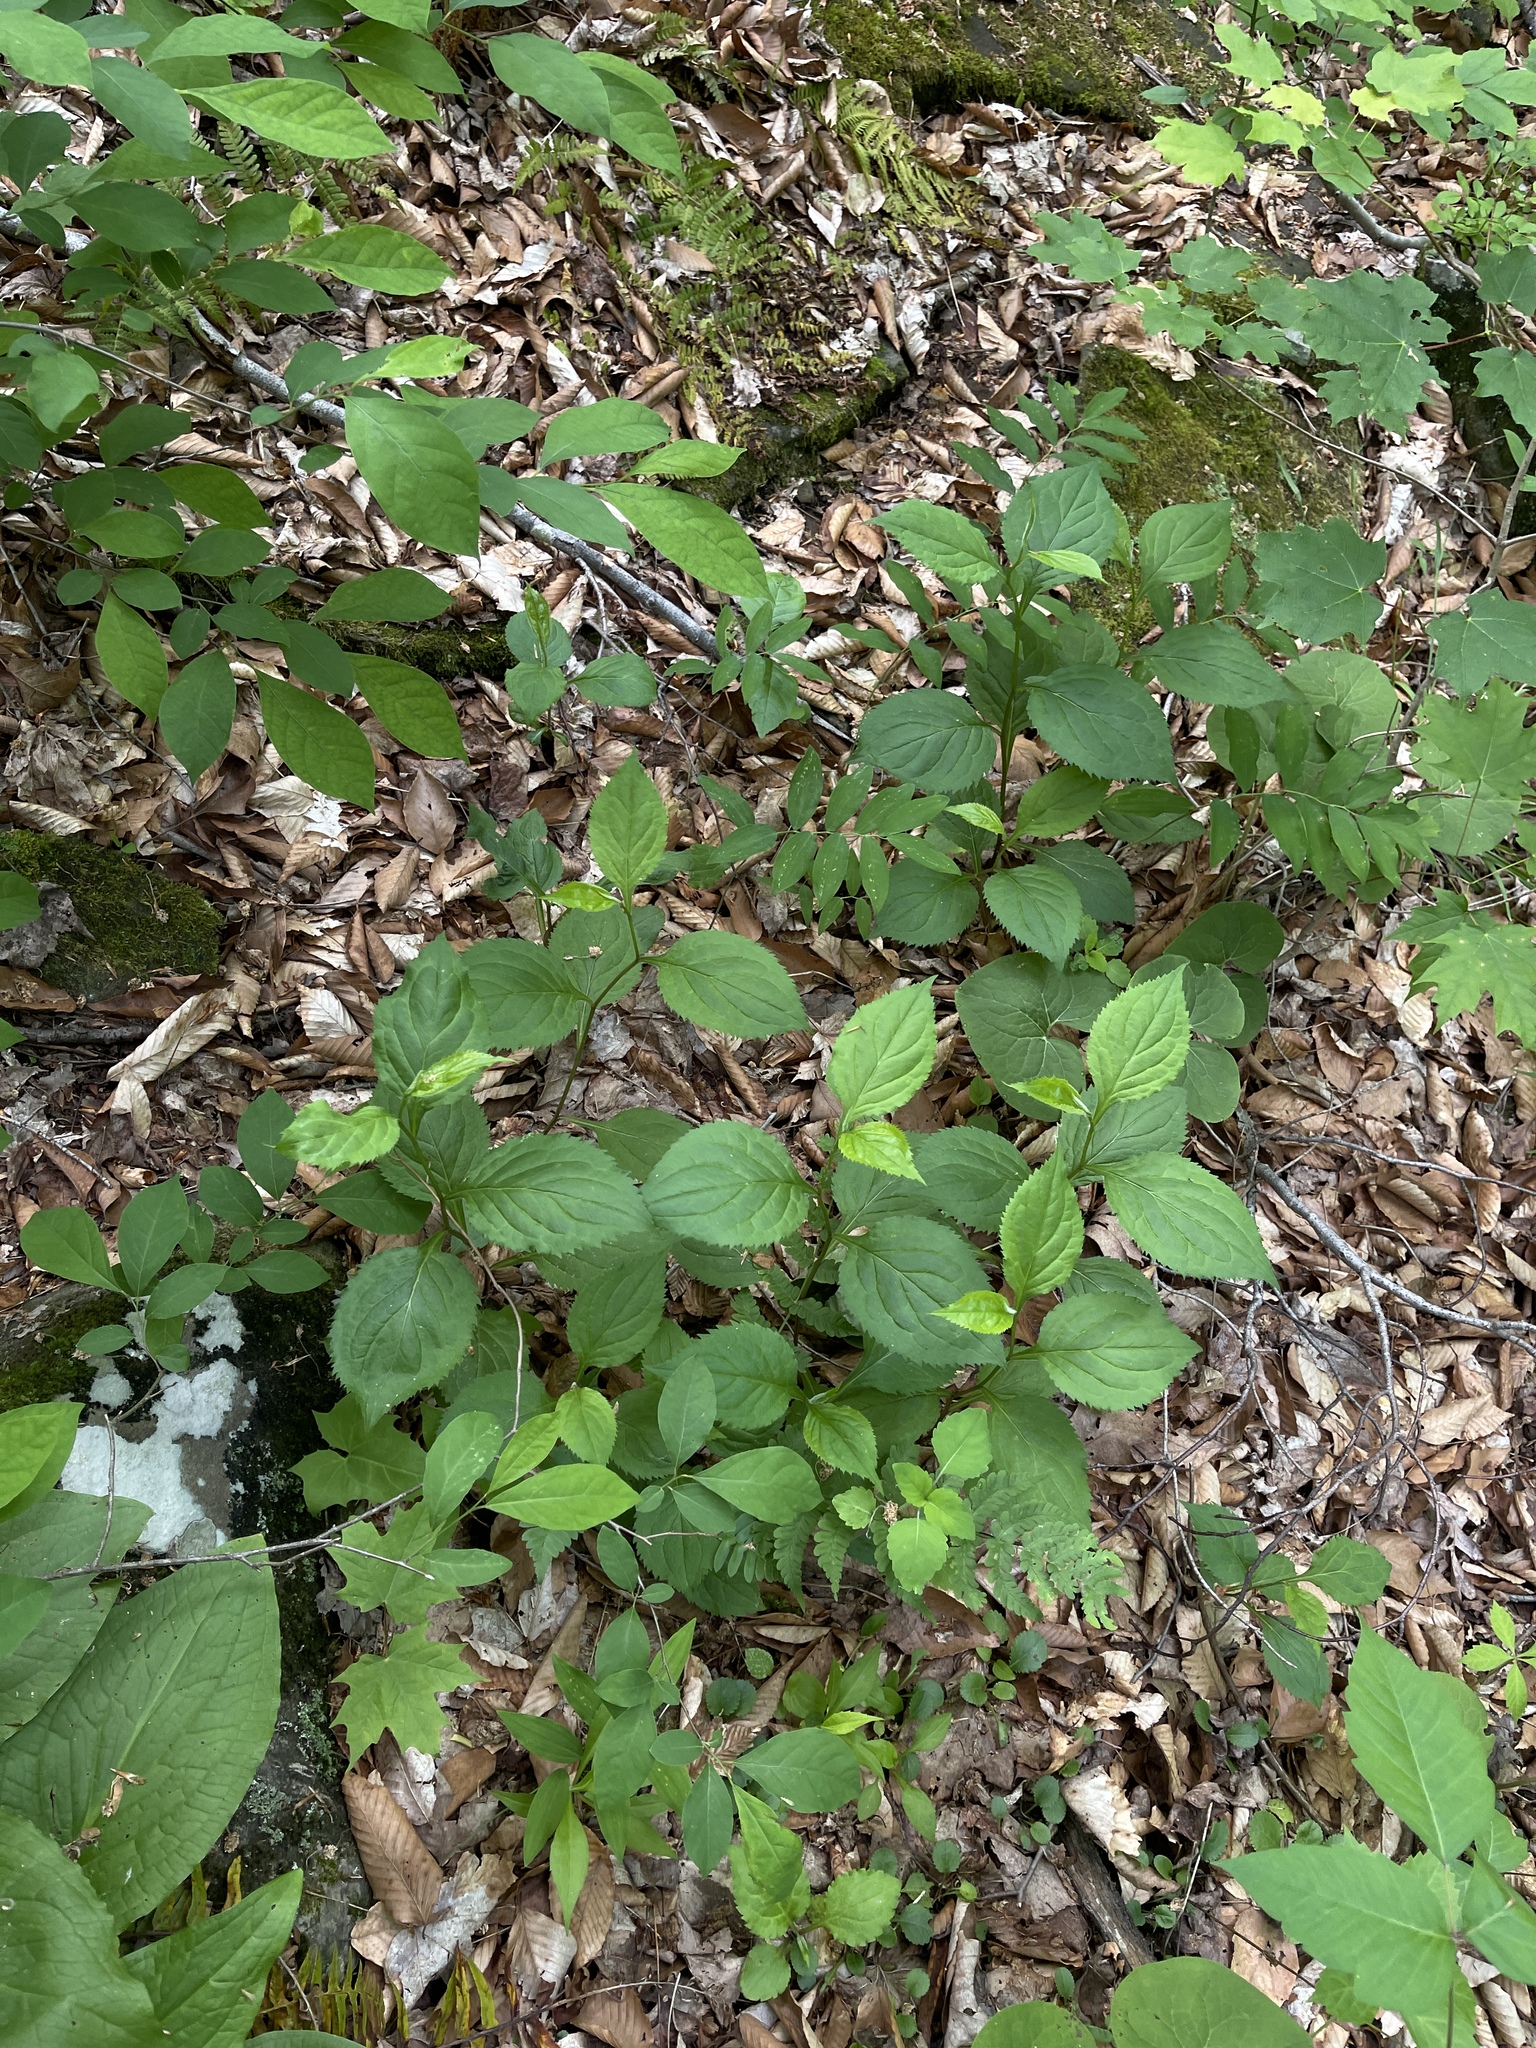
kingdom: Plantae
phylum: Tracheophyta
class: Magnoliopsida
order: Asterales
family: Asteraceae
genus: Solidago
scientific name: Solidago flexicaulis
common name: Zig-zag goldenrod
